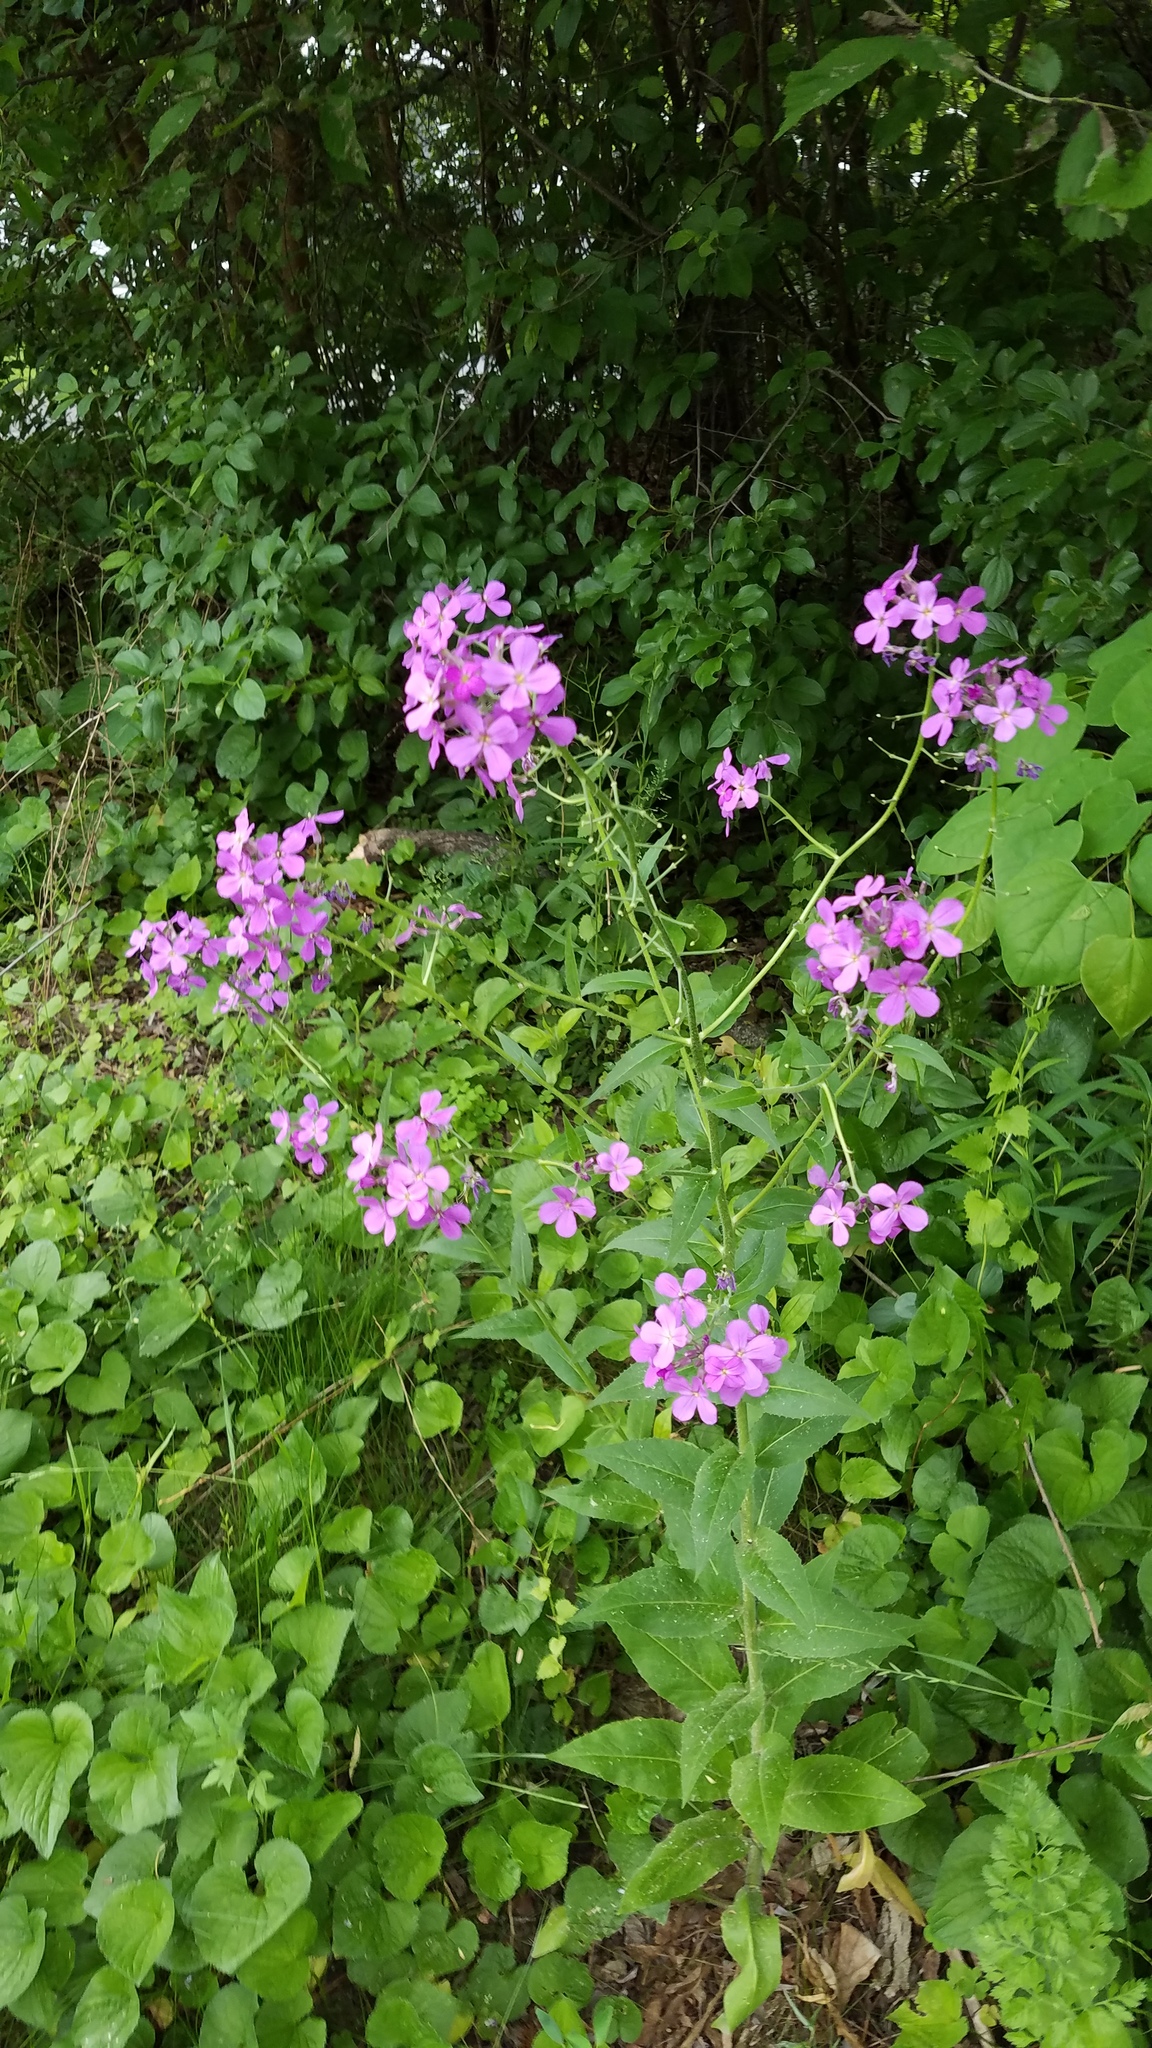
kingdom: Plantae
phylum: Tracheophyta
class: Magnoliopsida
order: Brassicales
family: Brassicaceae
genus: Hesperis
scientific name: Hesperis matronalis
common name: Dame's-violet
